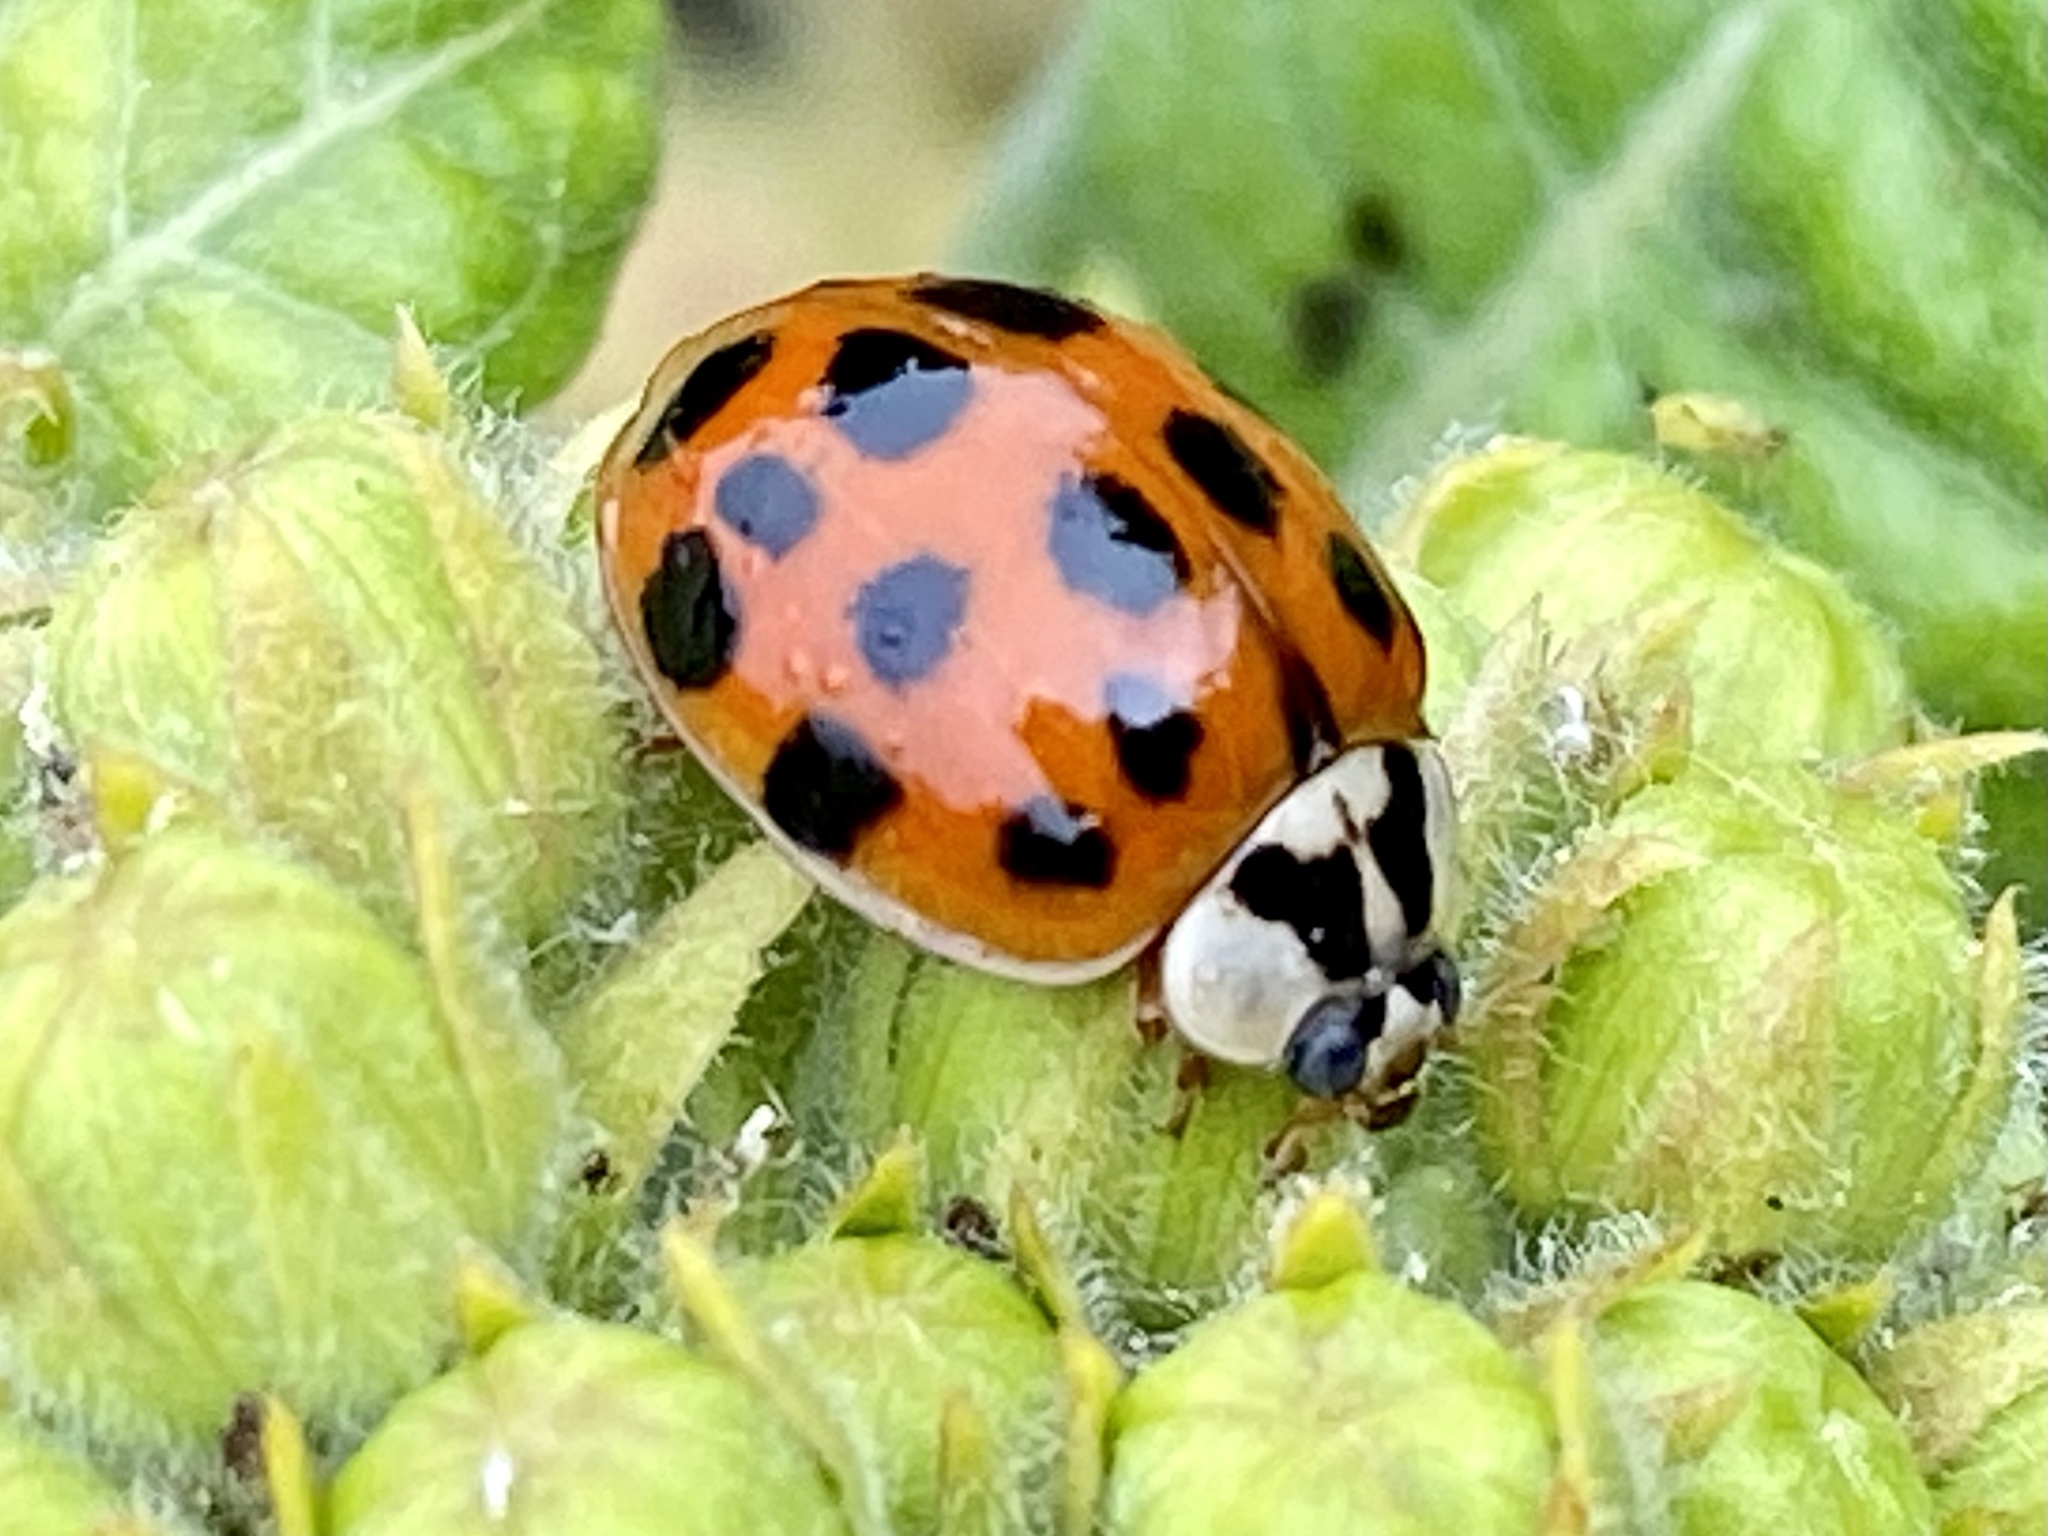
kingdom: Animalia
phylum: Arthropoda
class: Insecta
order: Coleoptera
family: Coccinellidae
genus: Harmonia
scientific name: Harmonia axyridis
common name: Harlequin ladybird
